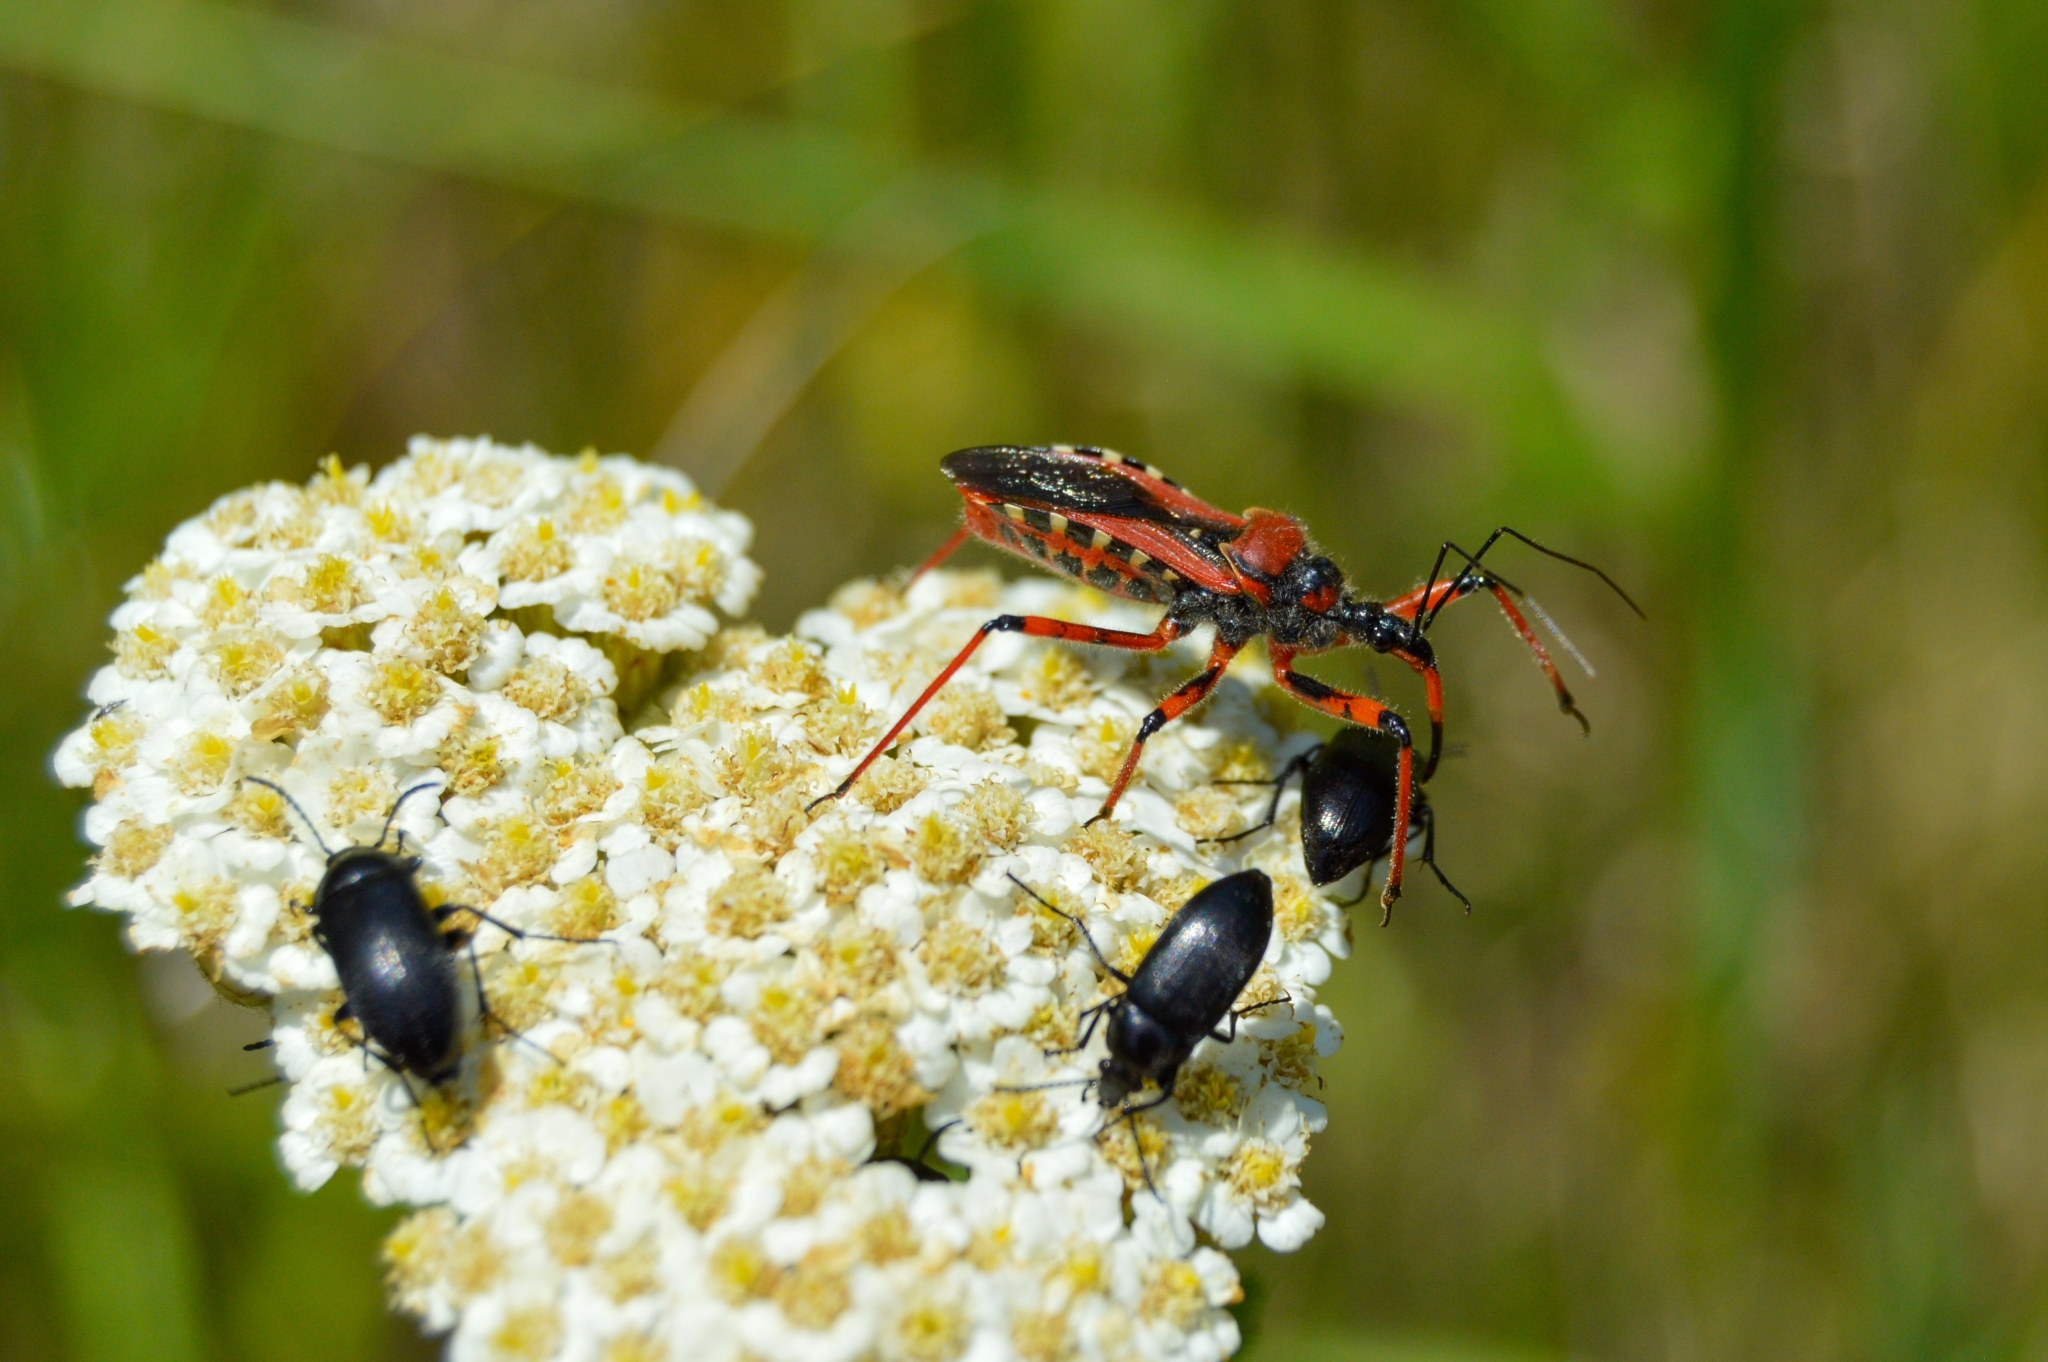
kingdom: Animalia
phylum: Arthropoda
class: Insecta
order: Hemiptera
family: Reduviidae
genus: Rhynocoris
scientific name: Rhynocoris iracundus
